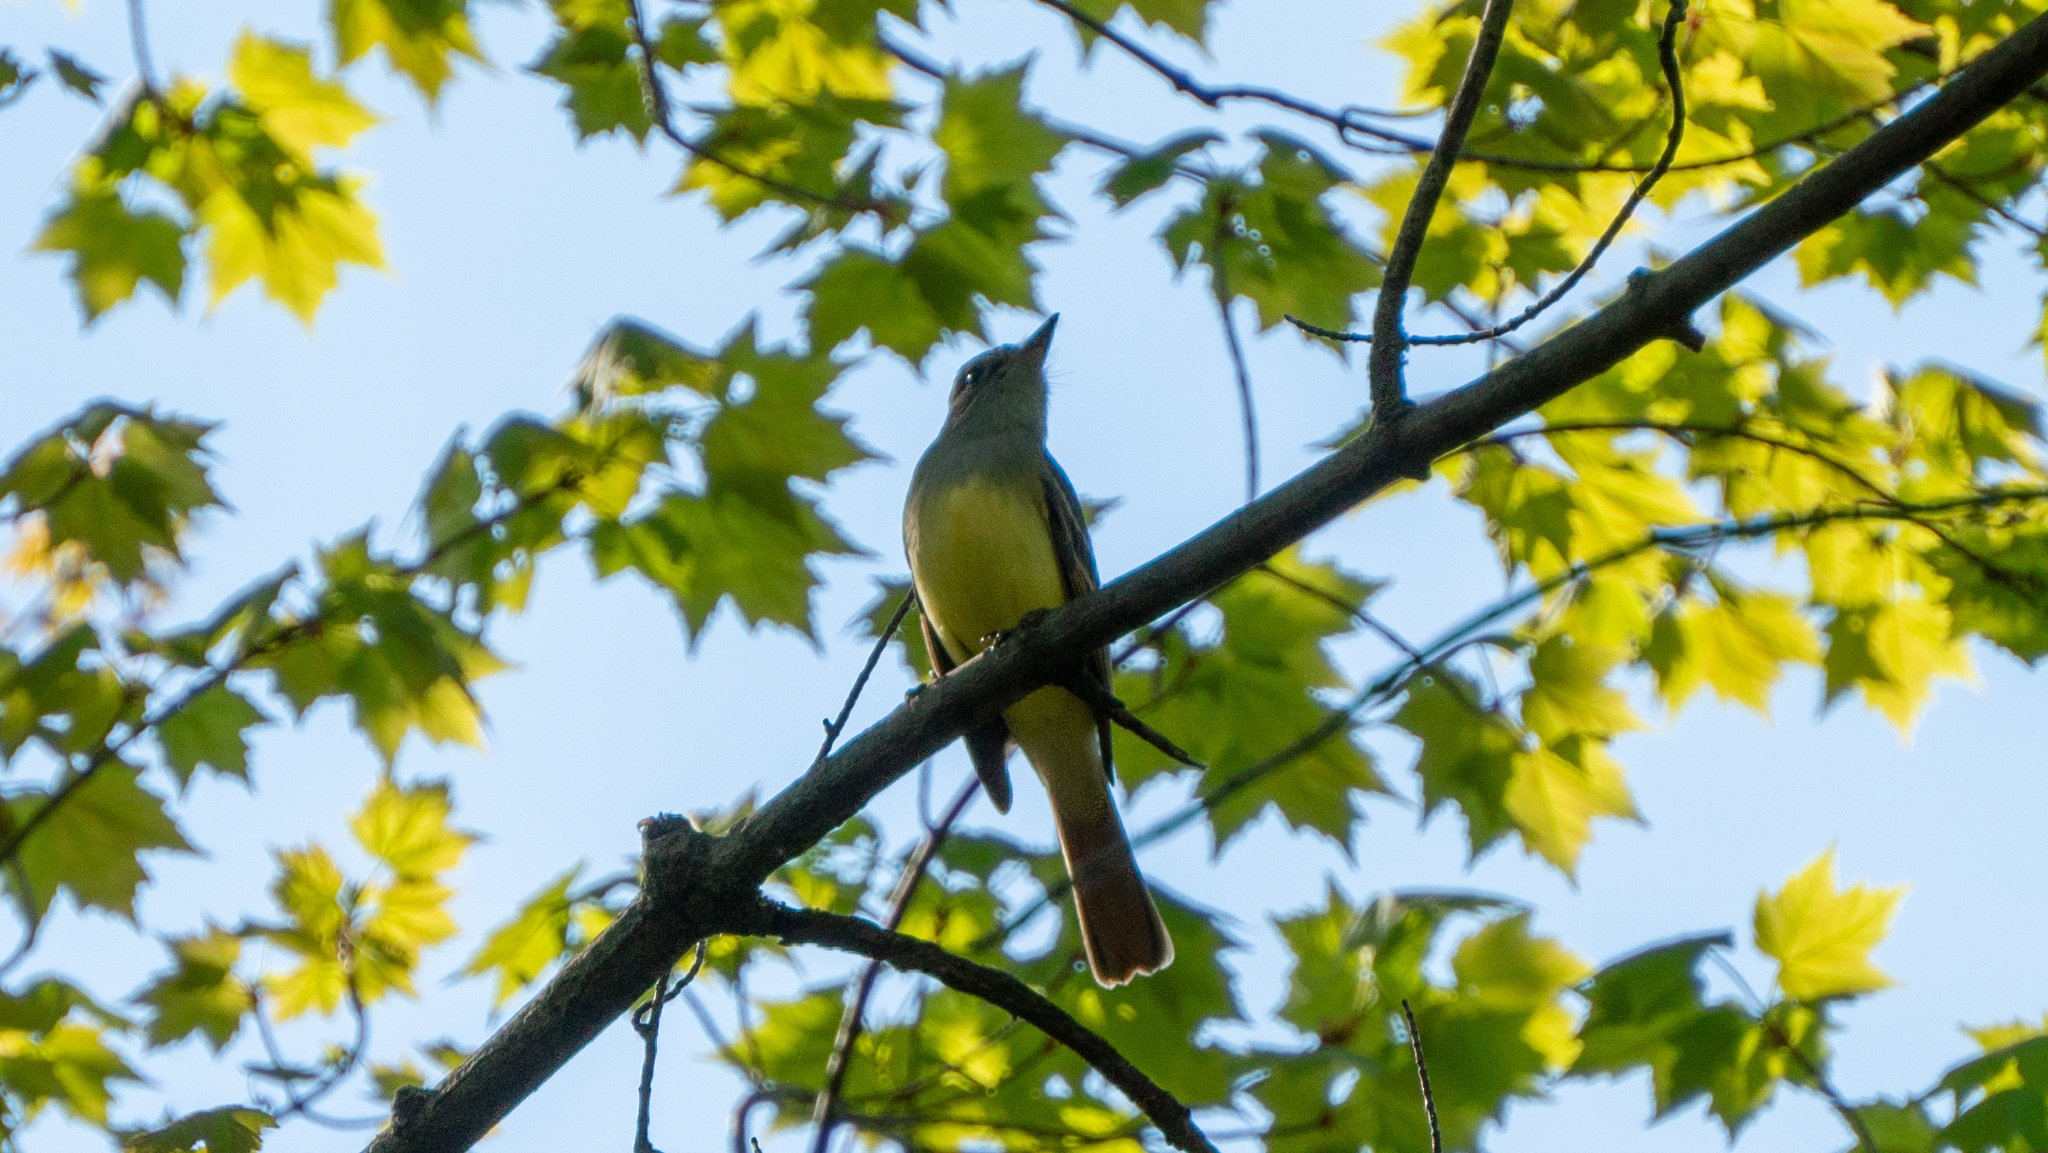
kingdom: Animalia
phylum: Chordata
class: Aves
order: Passeriformes
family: Tyrannidae
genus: Myiarchus
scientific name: Myiarchus crinitus
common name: Great crested flycatcher
